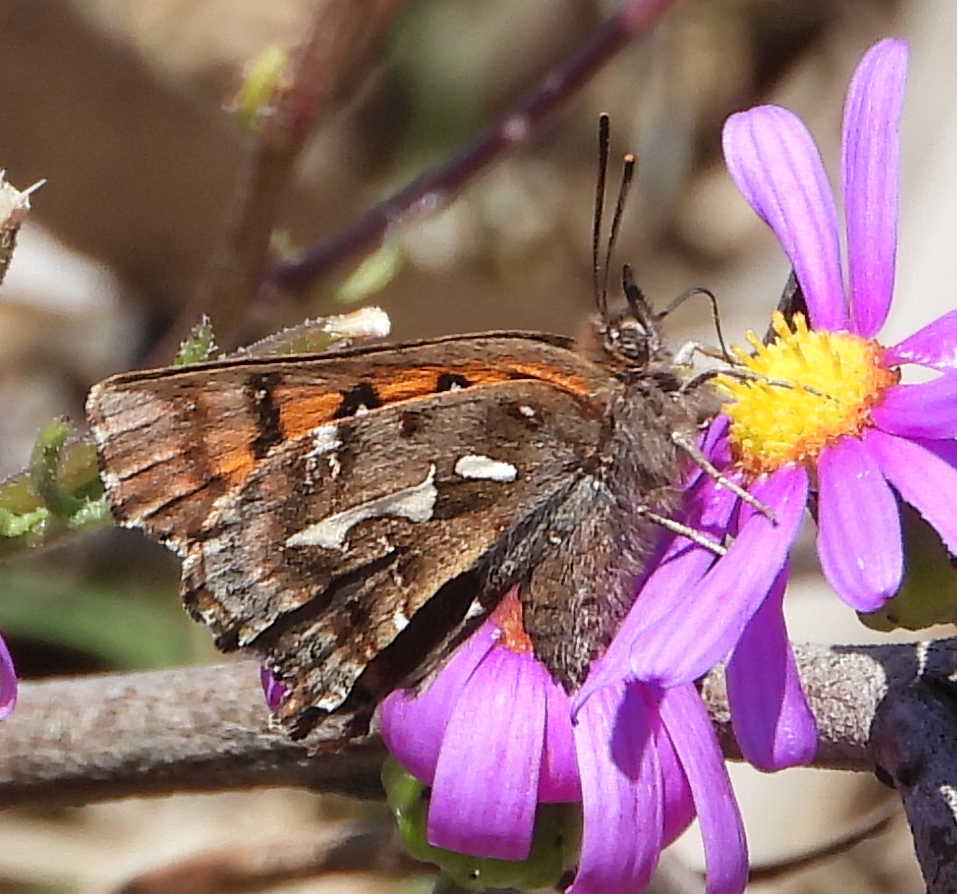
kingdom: Animalia
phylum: Arthropoda
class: Insecta
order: Lepidoptera
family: Lycaenidae
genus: Phasis
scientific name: Phasis thero
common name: Silver arrowhead
